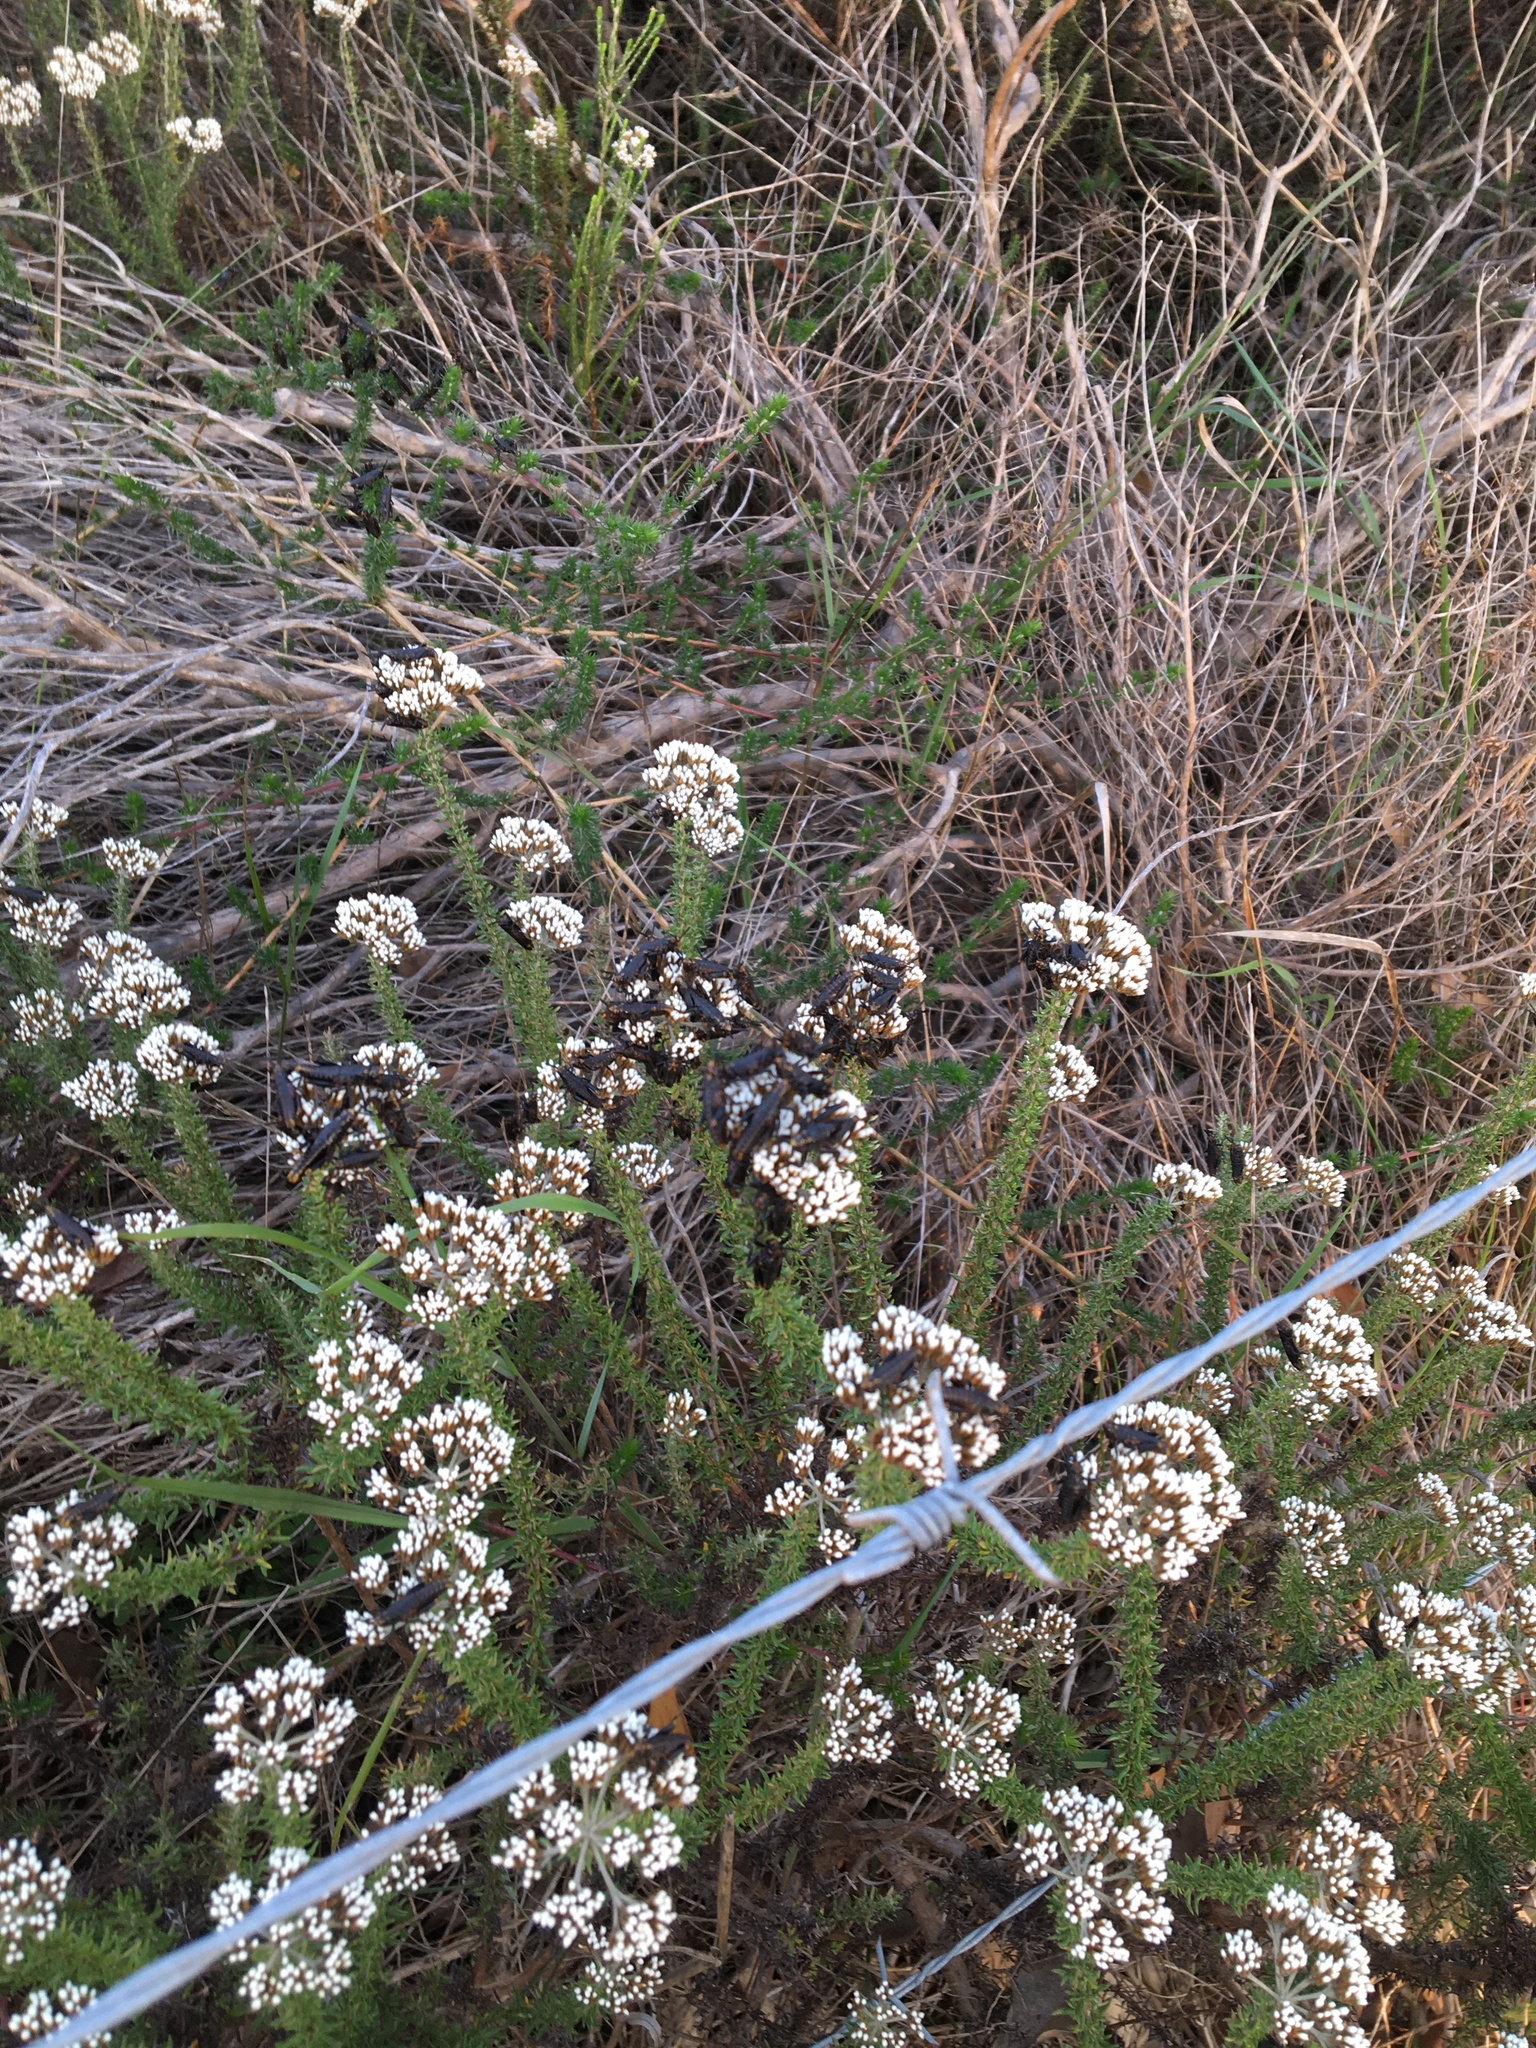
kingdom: Animalia
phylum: Arthropoda
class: Insecta
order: Orthoptera
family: Pyrgomorphidae
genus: Dictyophorus
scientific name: Dictyophorus spumans
